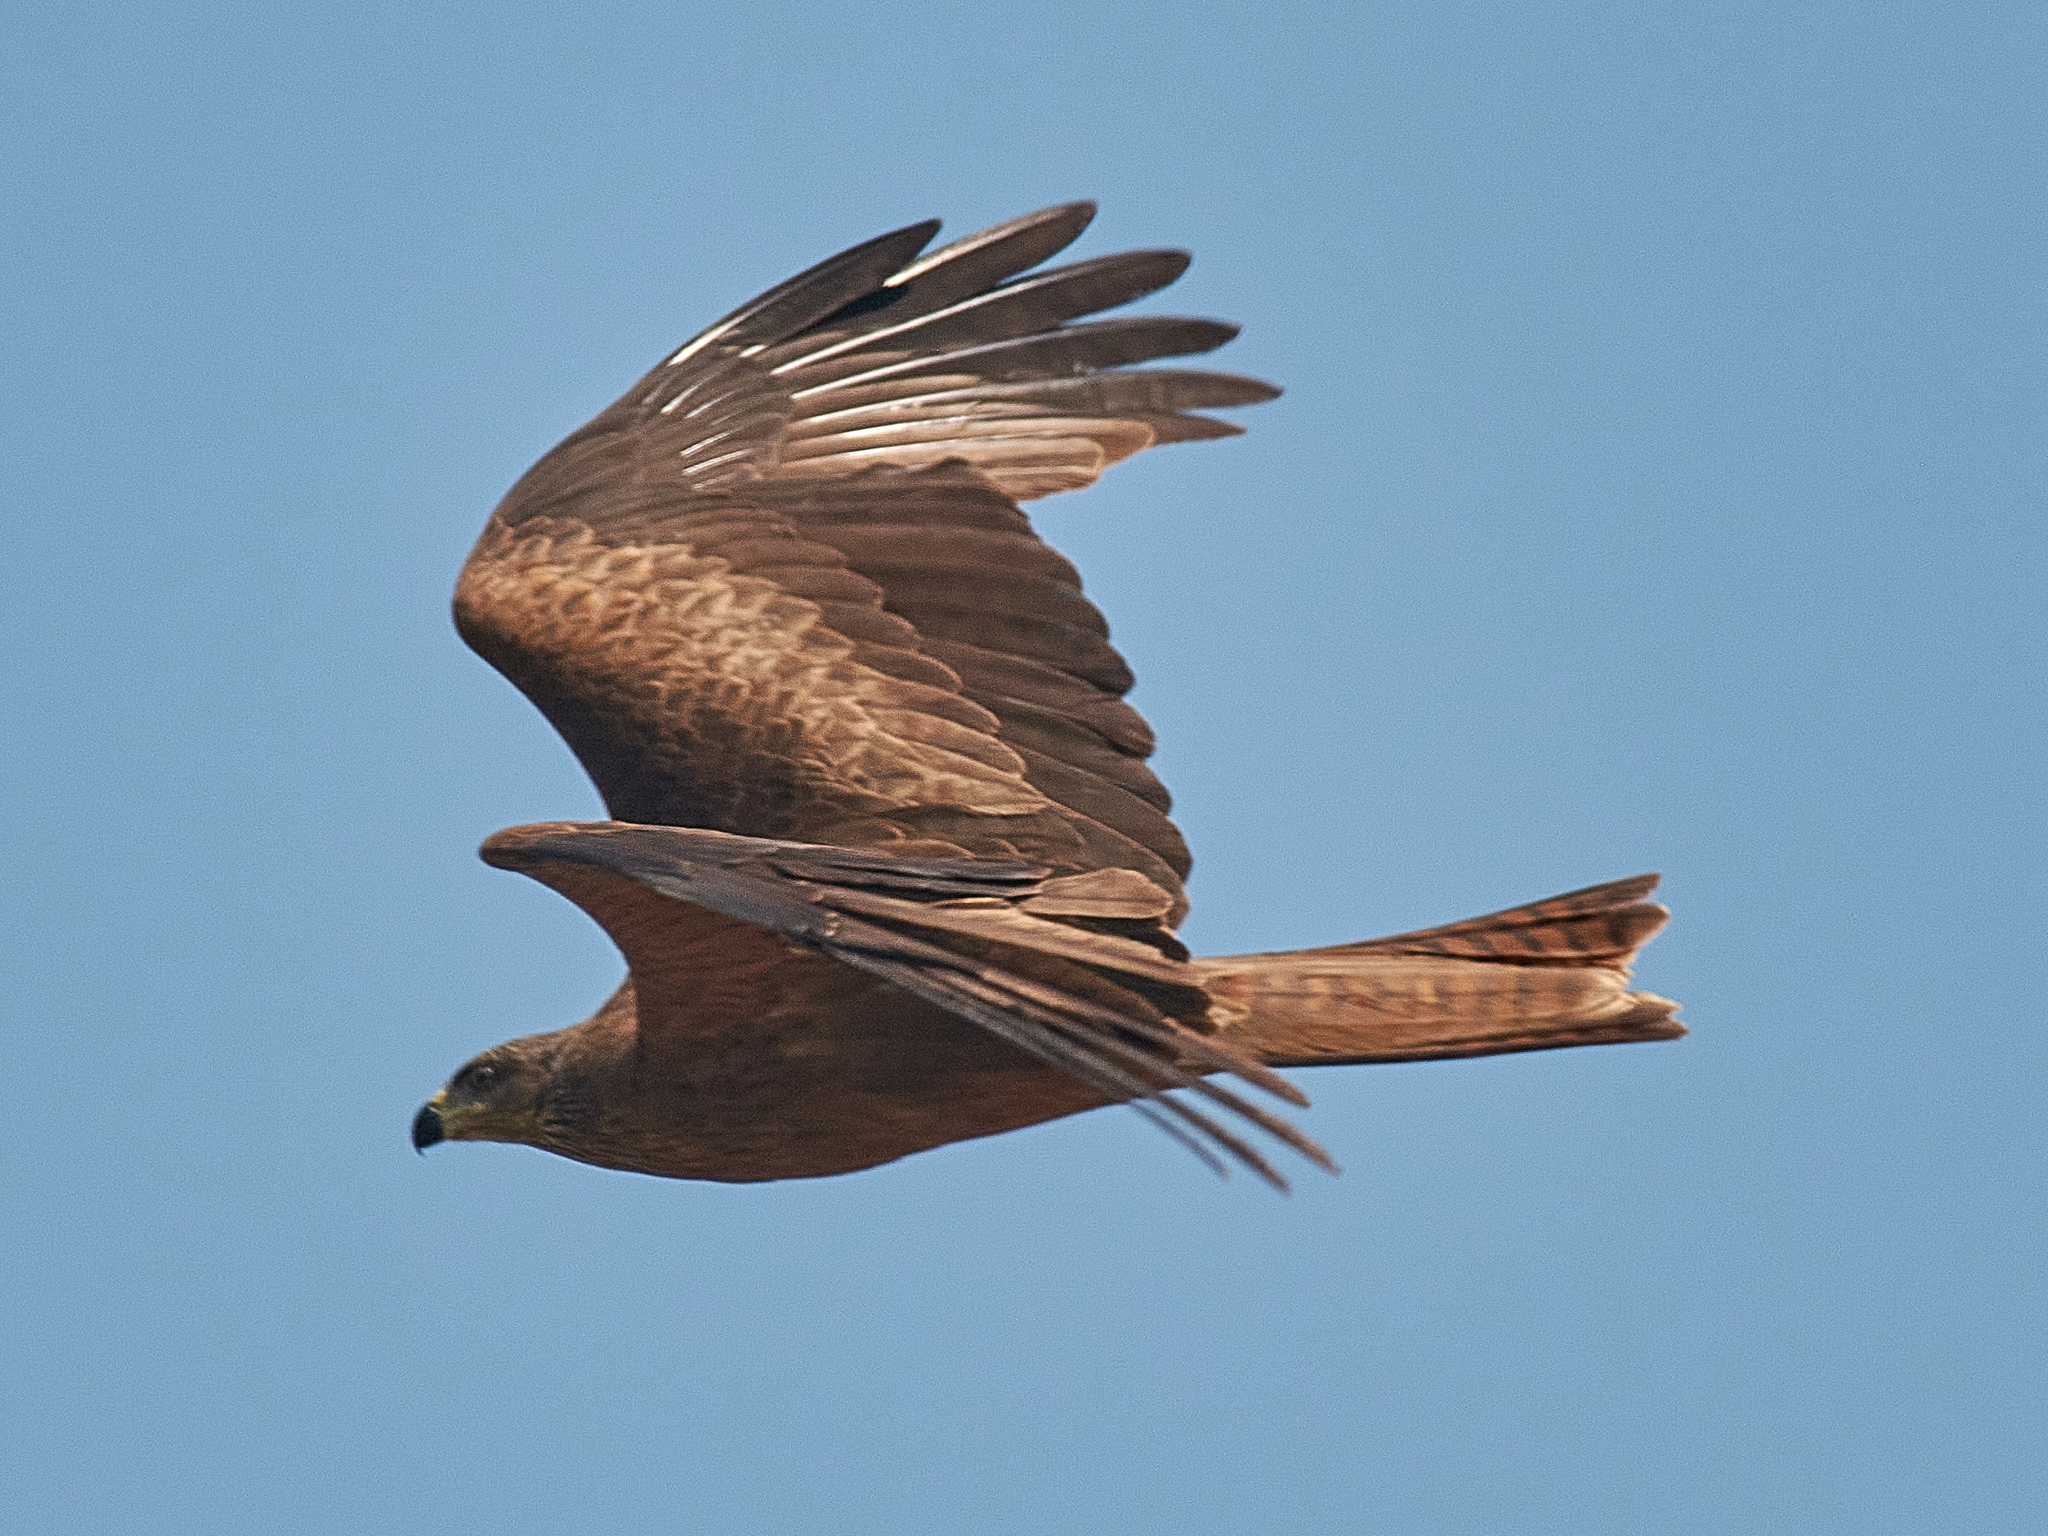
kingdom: Animalia
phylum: Chordata
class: Aves
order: Accipitriformes
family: Accipitridae
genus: Milvus
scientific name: Milvus migrans
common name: Black kite
